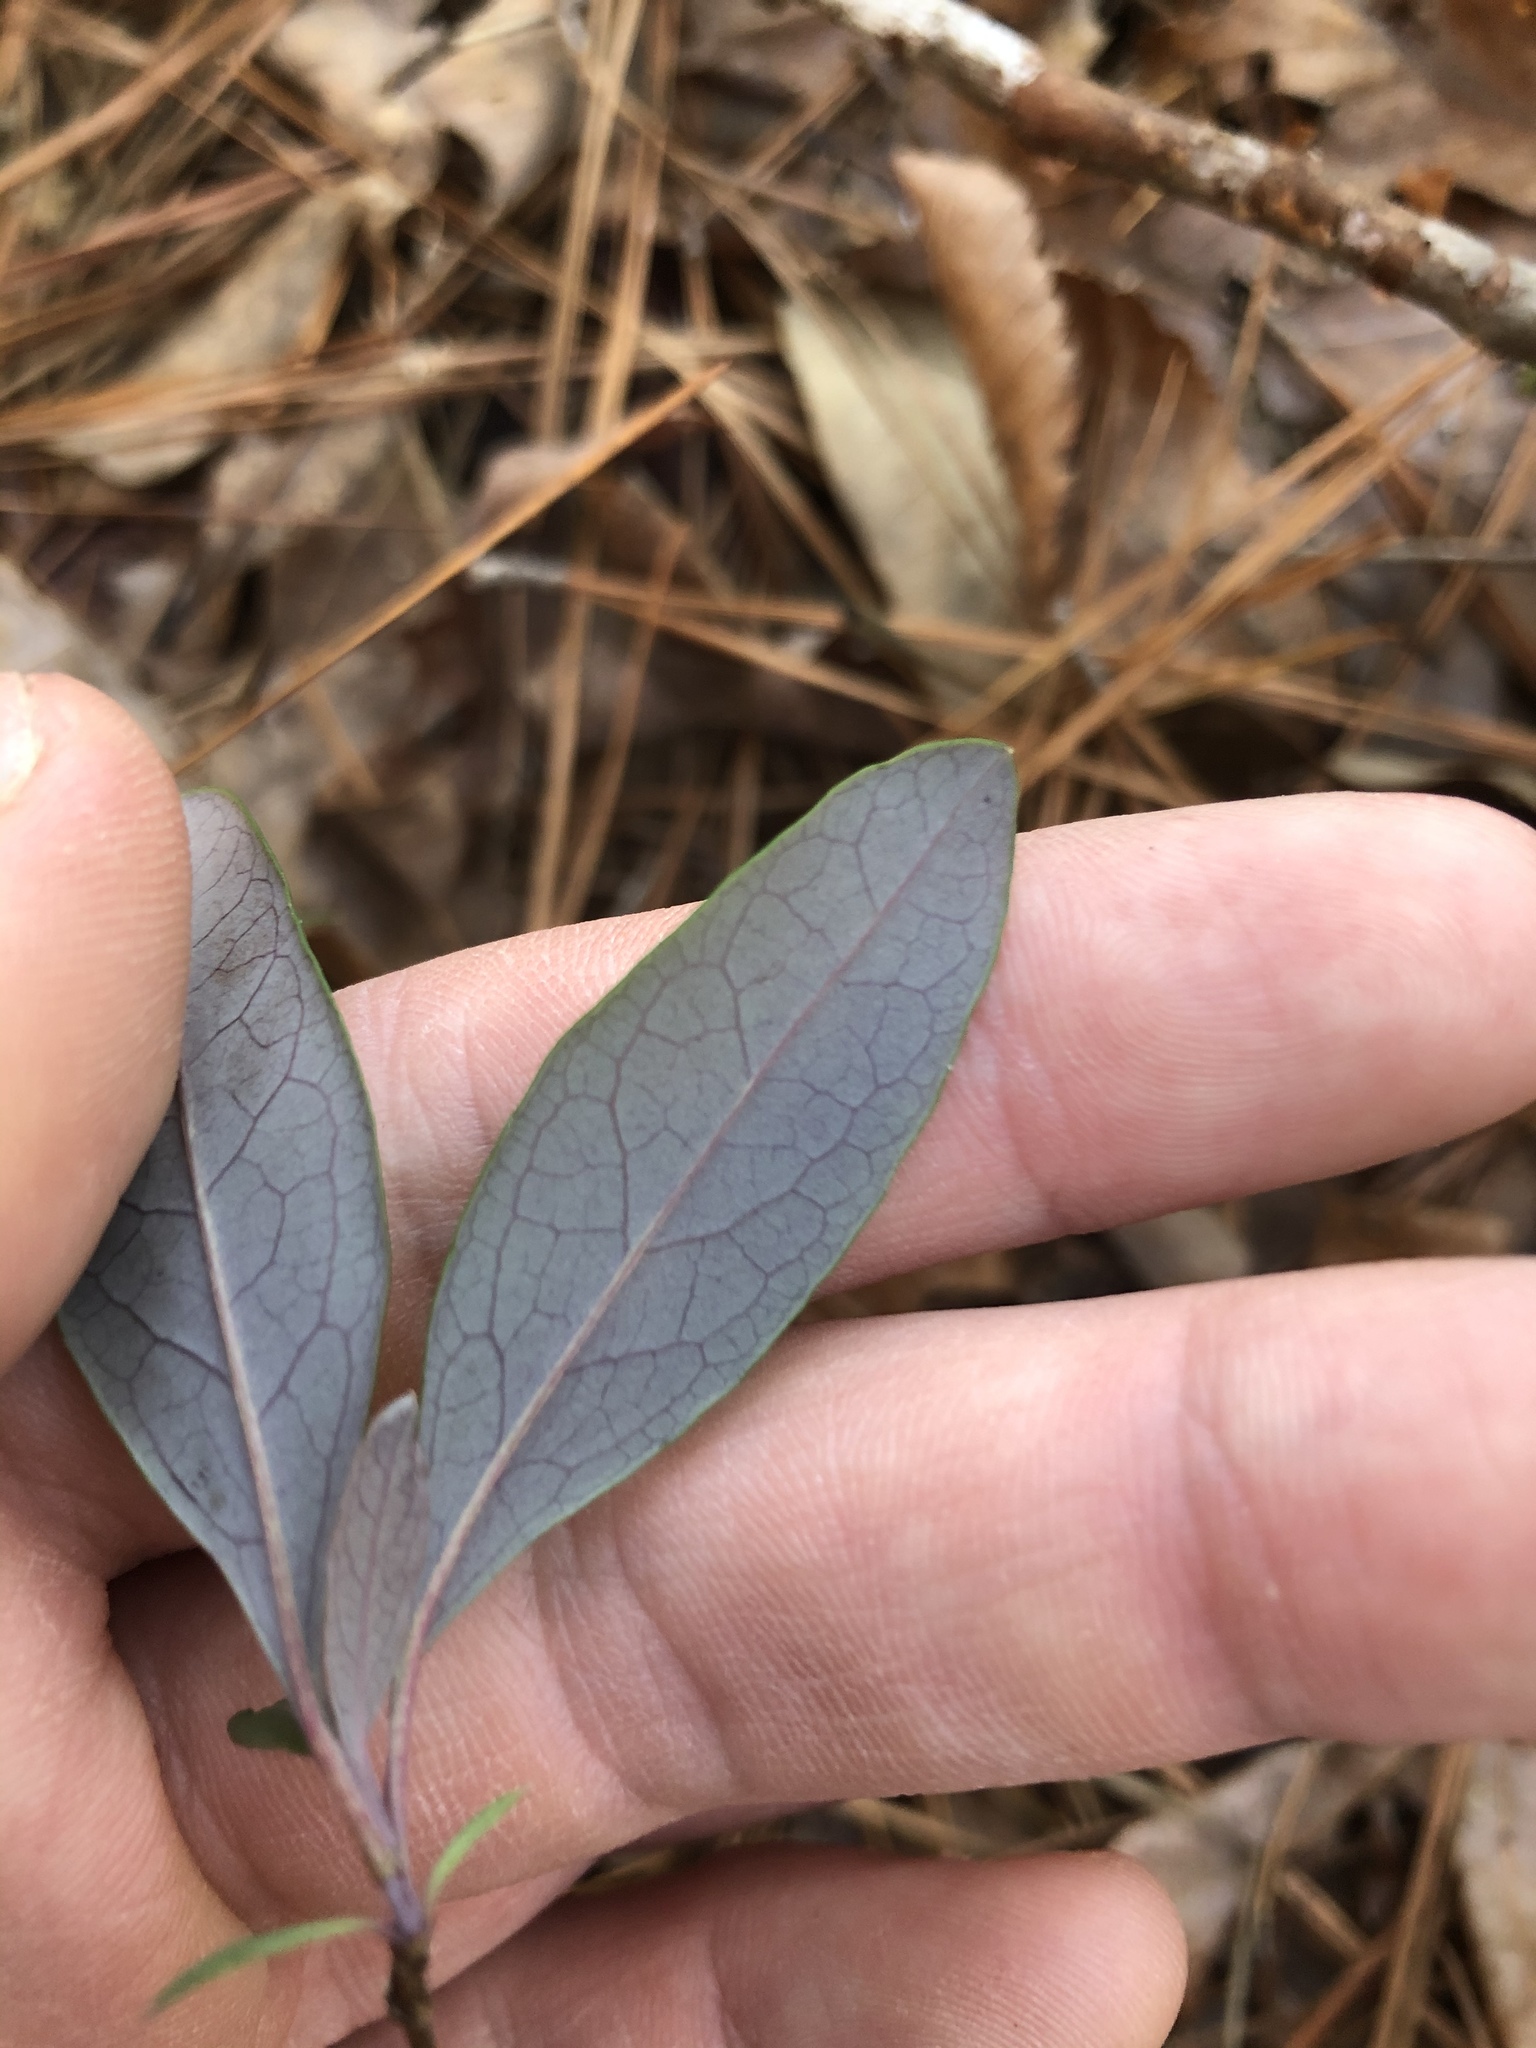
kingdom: Plantae
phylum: Tracheophyta
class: Magnoliopsida
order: Dipsacales
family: Caprifoliaceae
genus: Lonicera
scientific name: Lonicera sempervirens
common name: Coral honeysuckle
